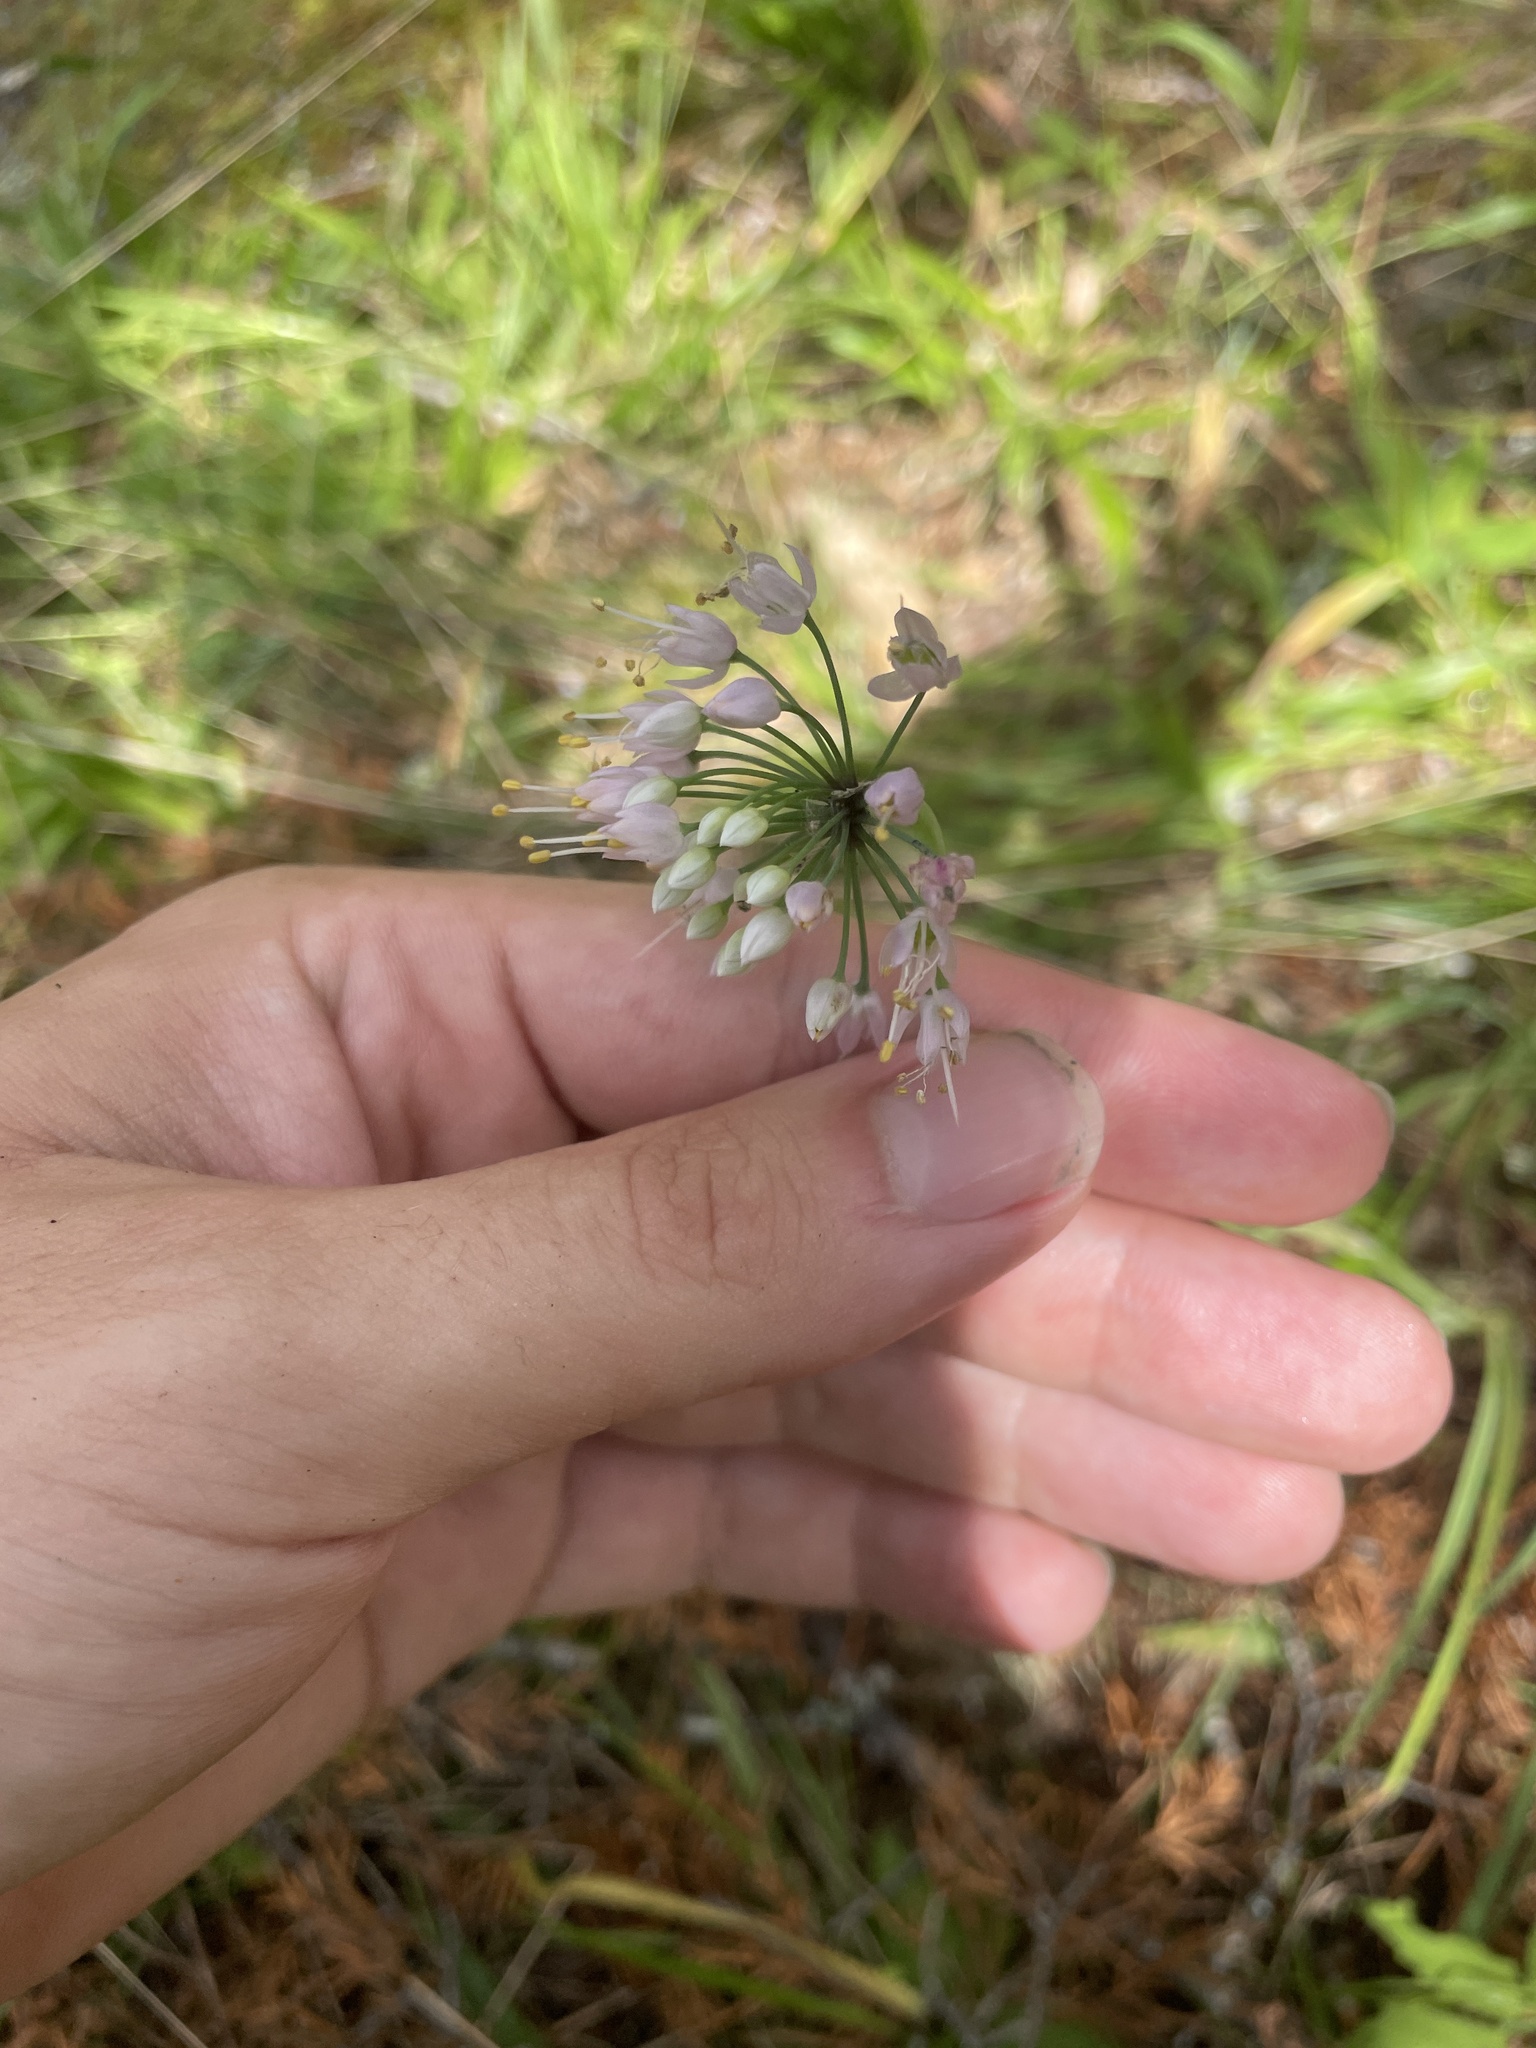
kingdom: Plantae
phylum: Tracheophyta
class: Liliopsida
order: Asparagales
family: Amaryllidaceae
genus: Allium
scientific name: Allium cernuum
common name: Nodding onion
